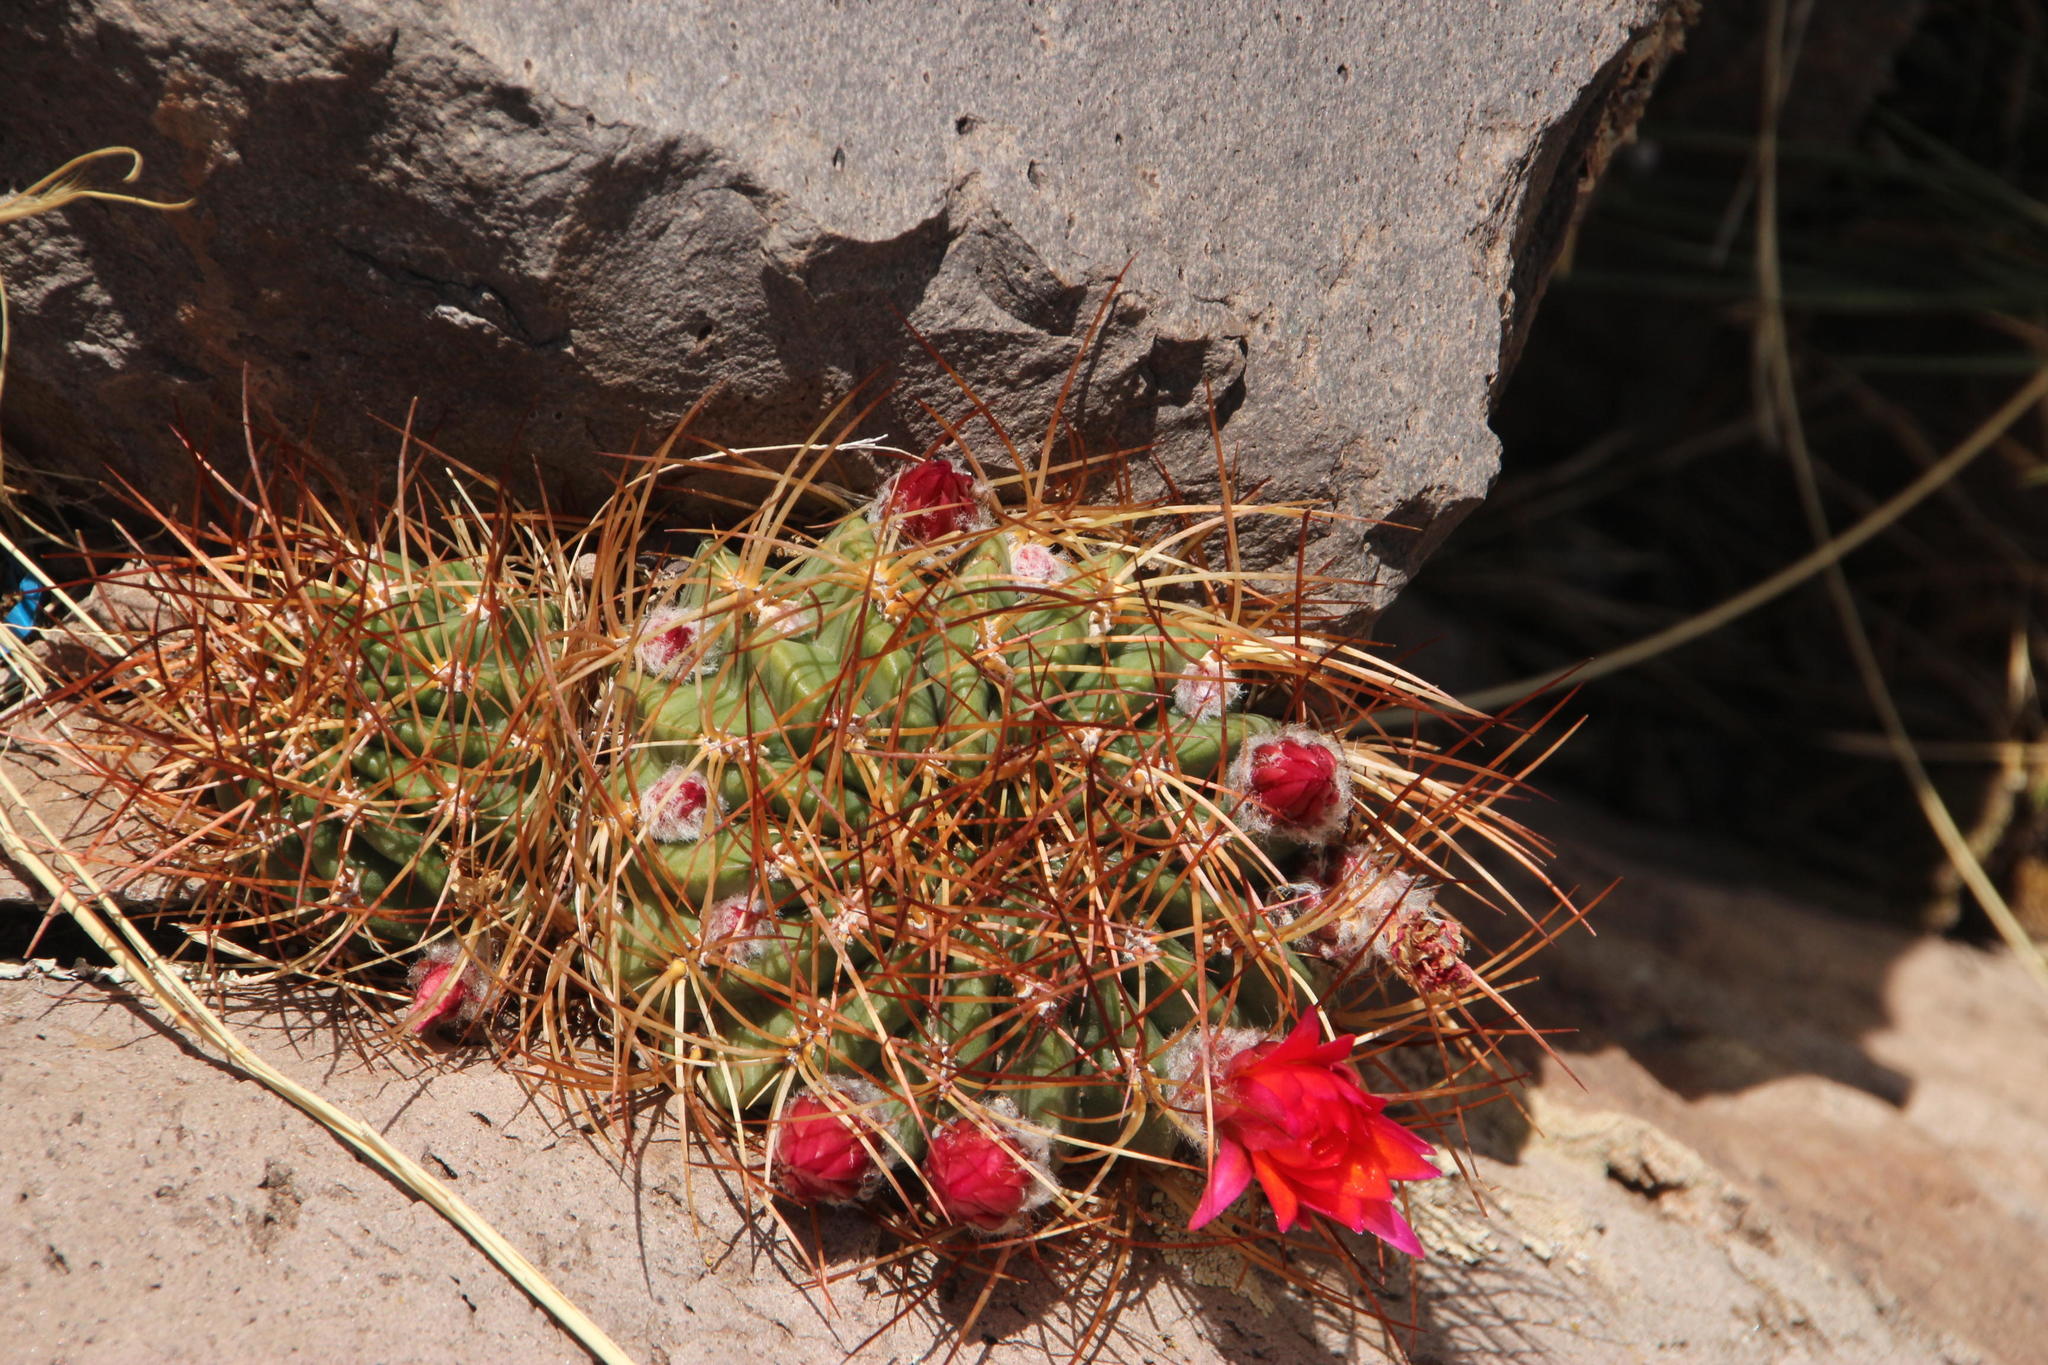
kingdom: Plantae
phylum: Tracheophyta
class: Magnoliopsida
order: Caryophyllales
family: Cactaceae
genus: Lobivia
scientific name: Lobivia maximiliana
